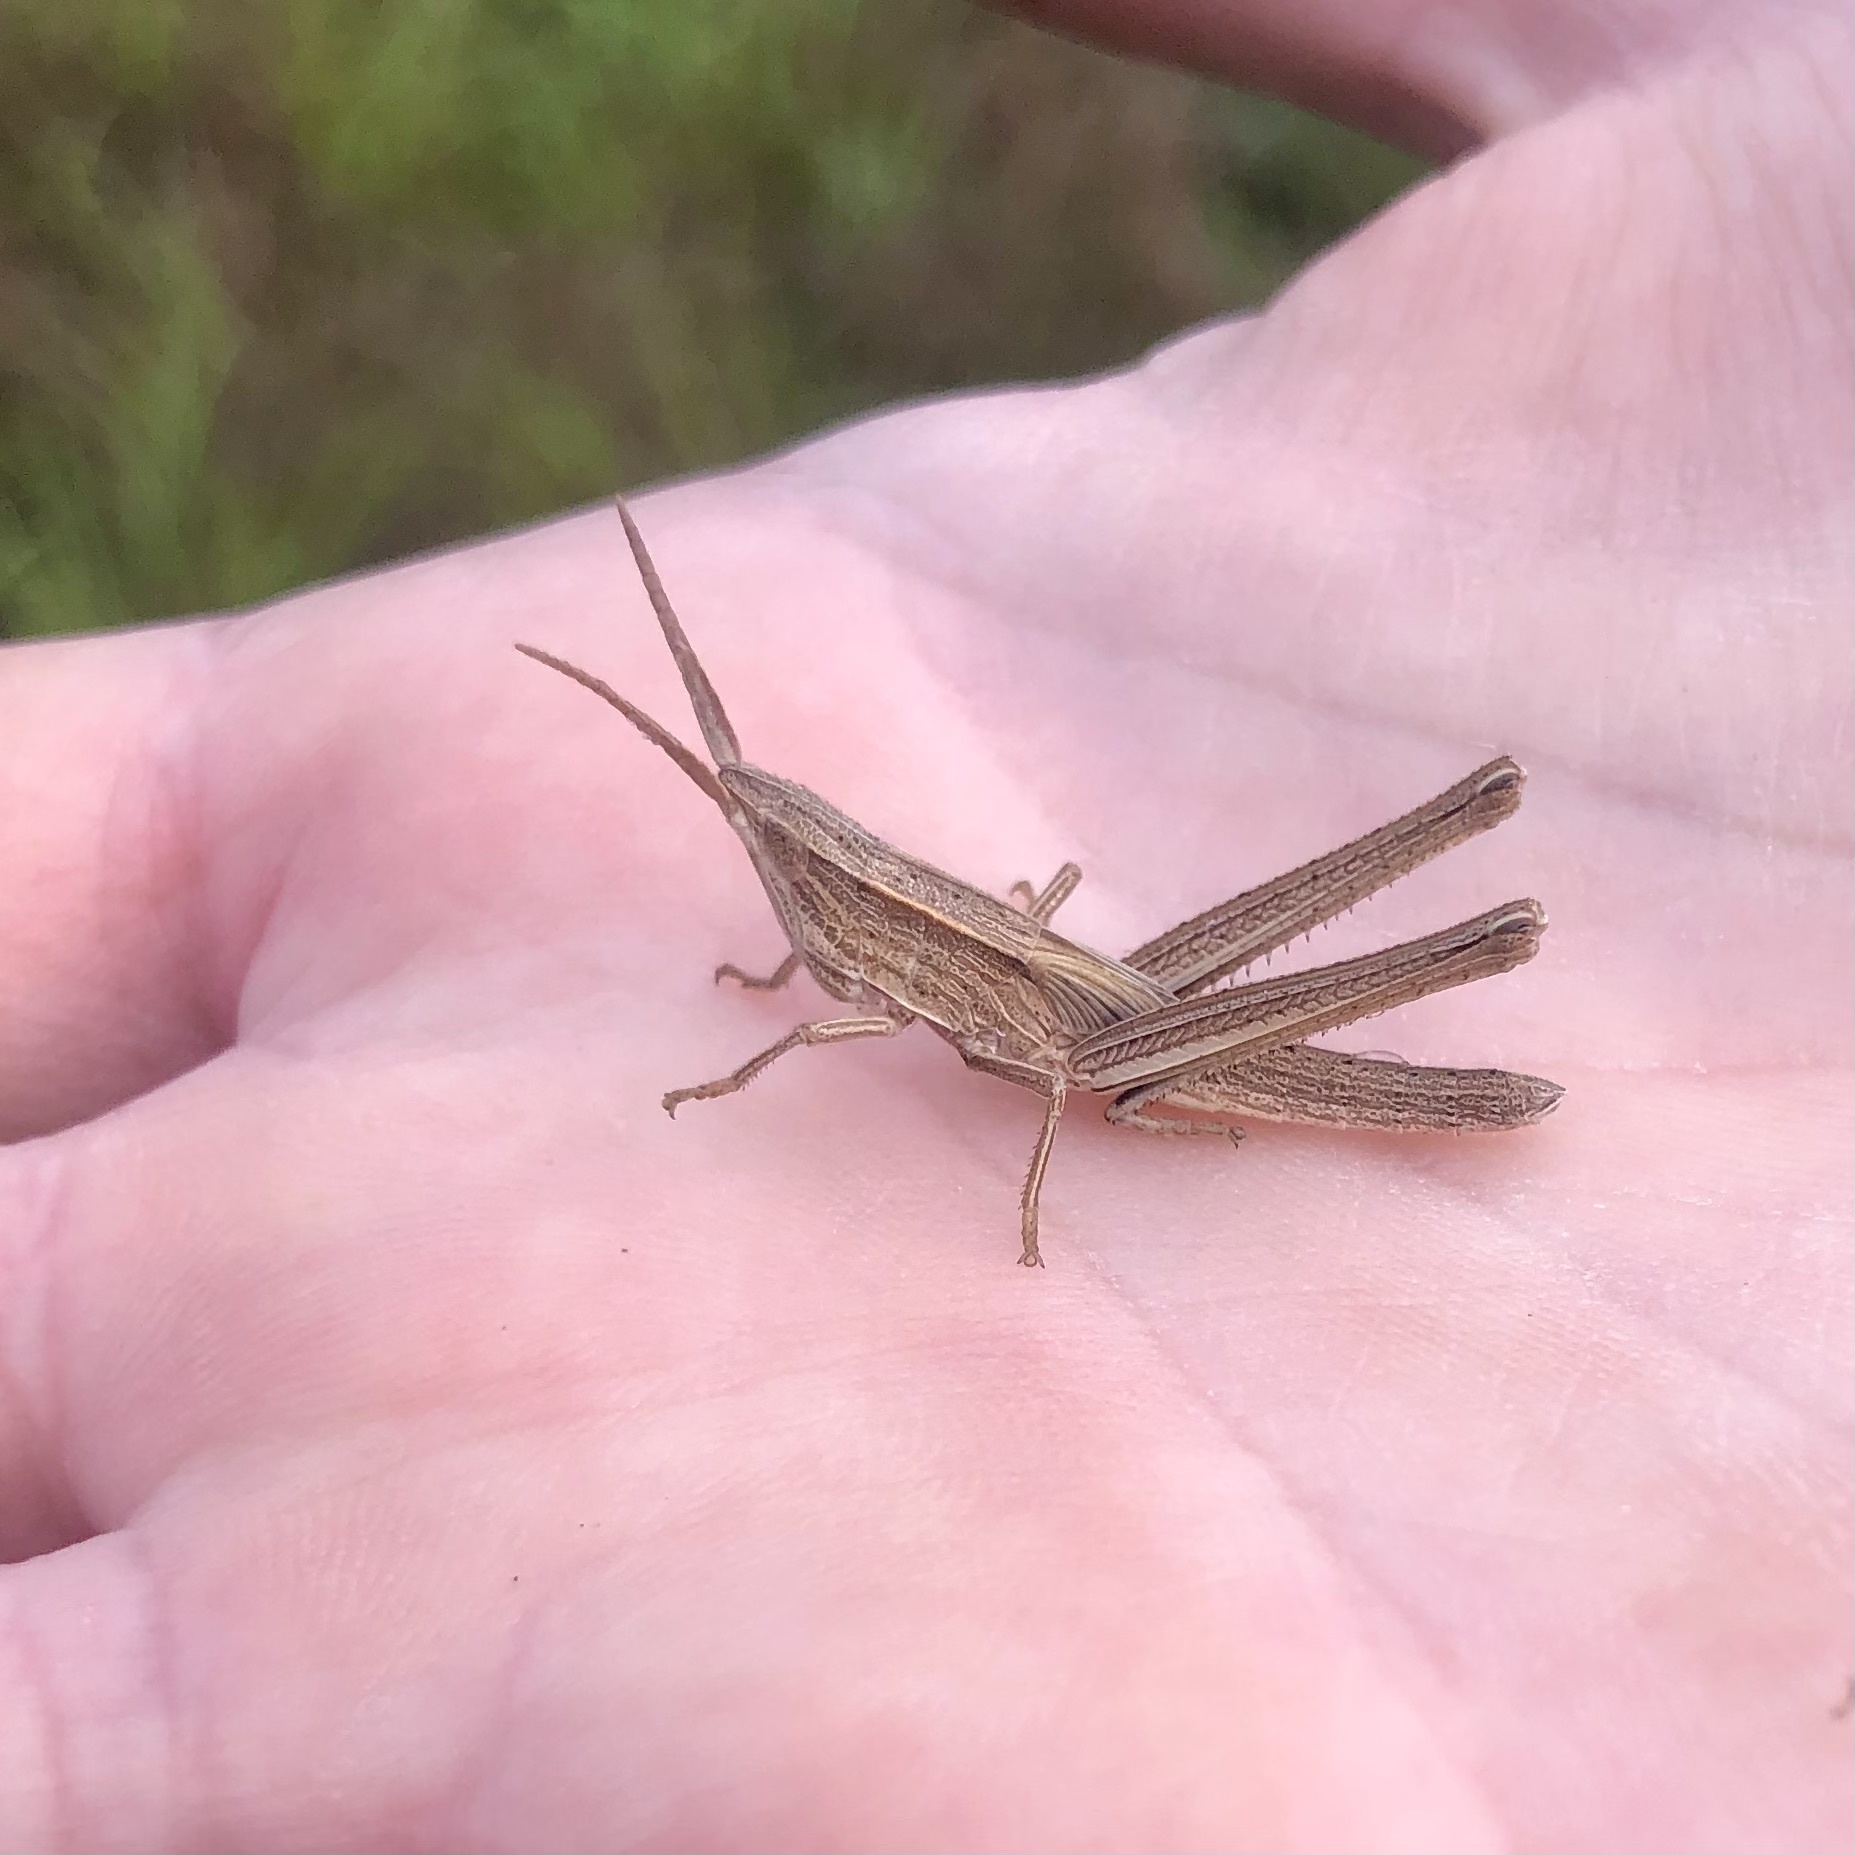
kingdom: Animalia
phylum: Arthropoda
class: Insecta
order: Orthoptera
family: Acrididae
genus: Pseudopomala
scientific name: Pseudopomala brachyptera
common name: Bunchgrass grasshopper
